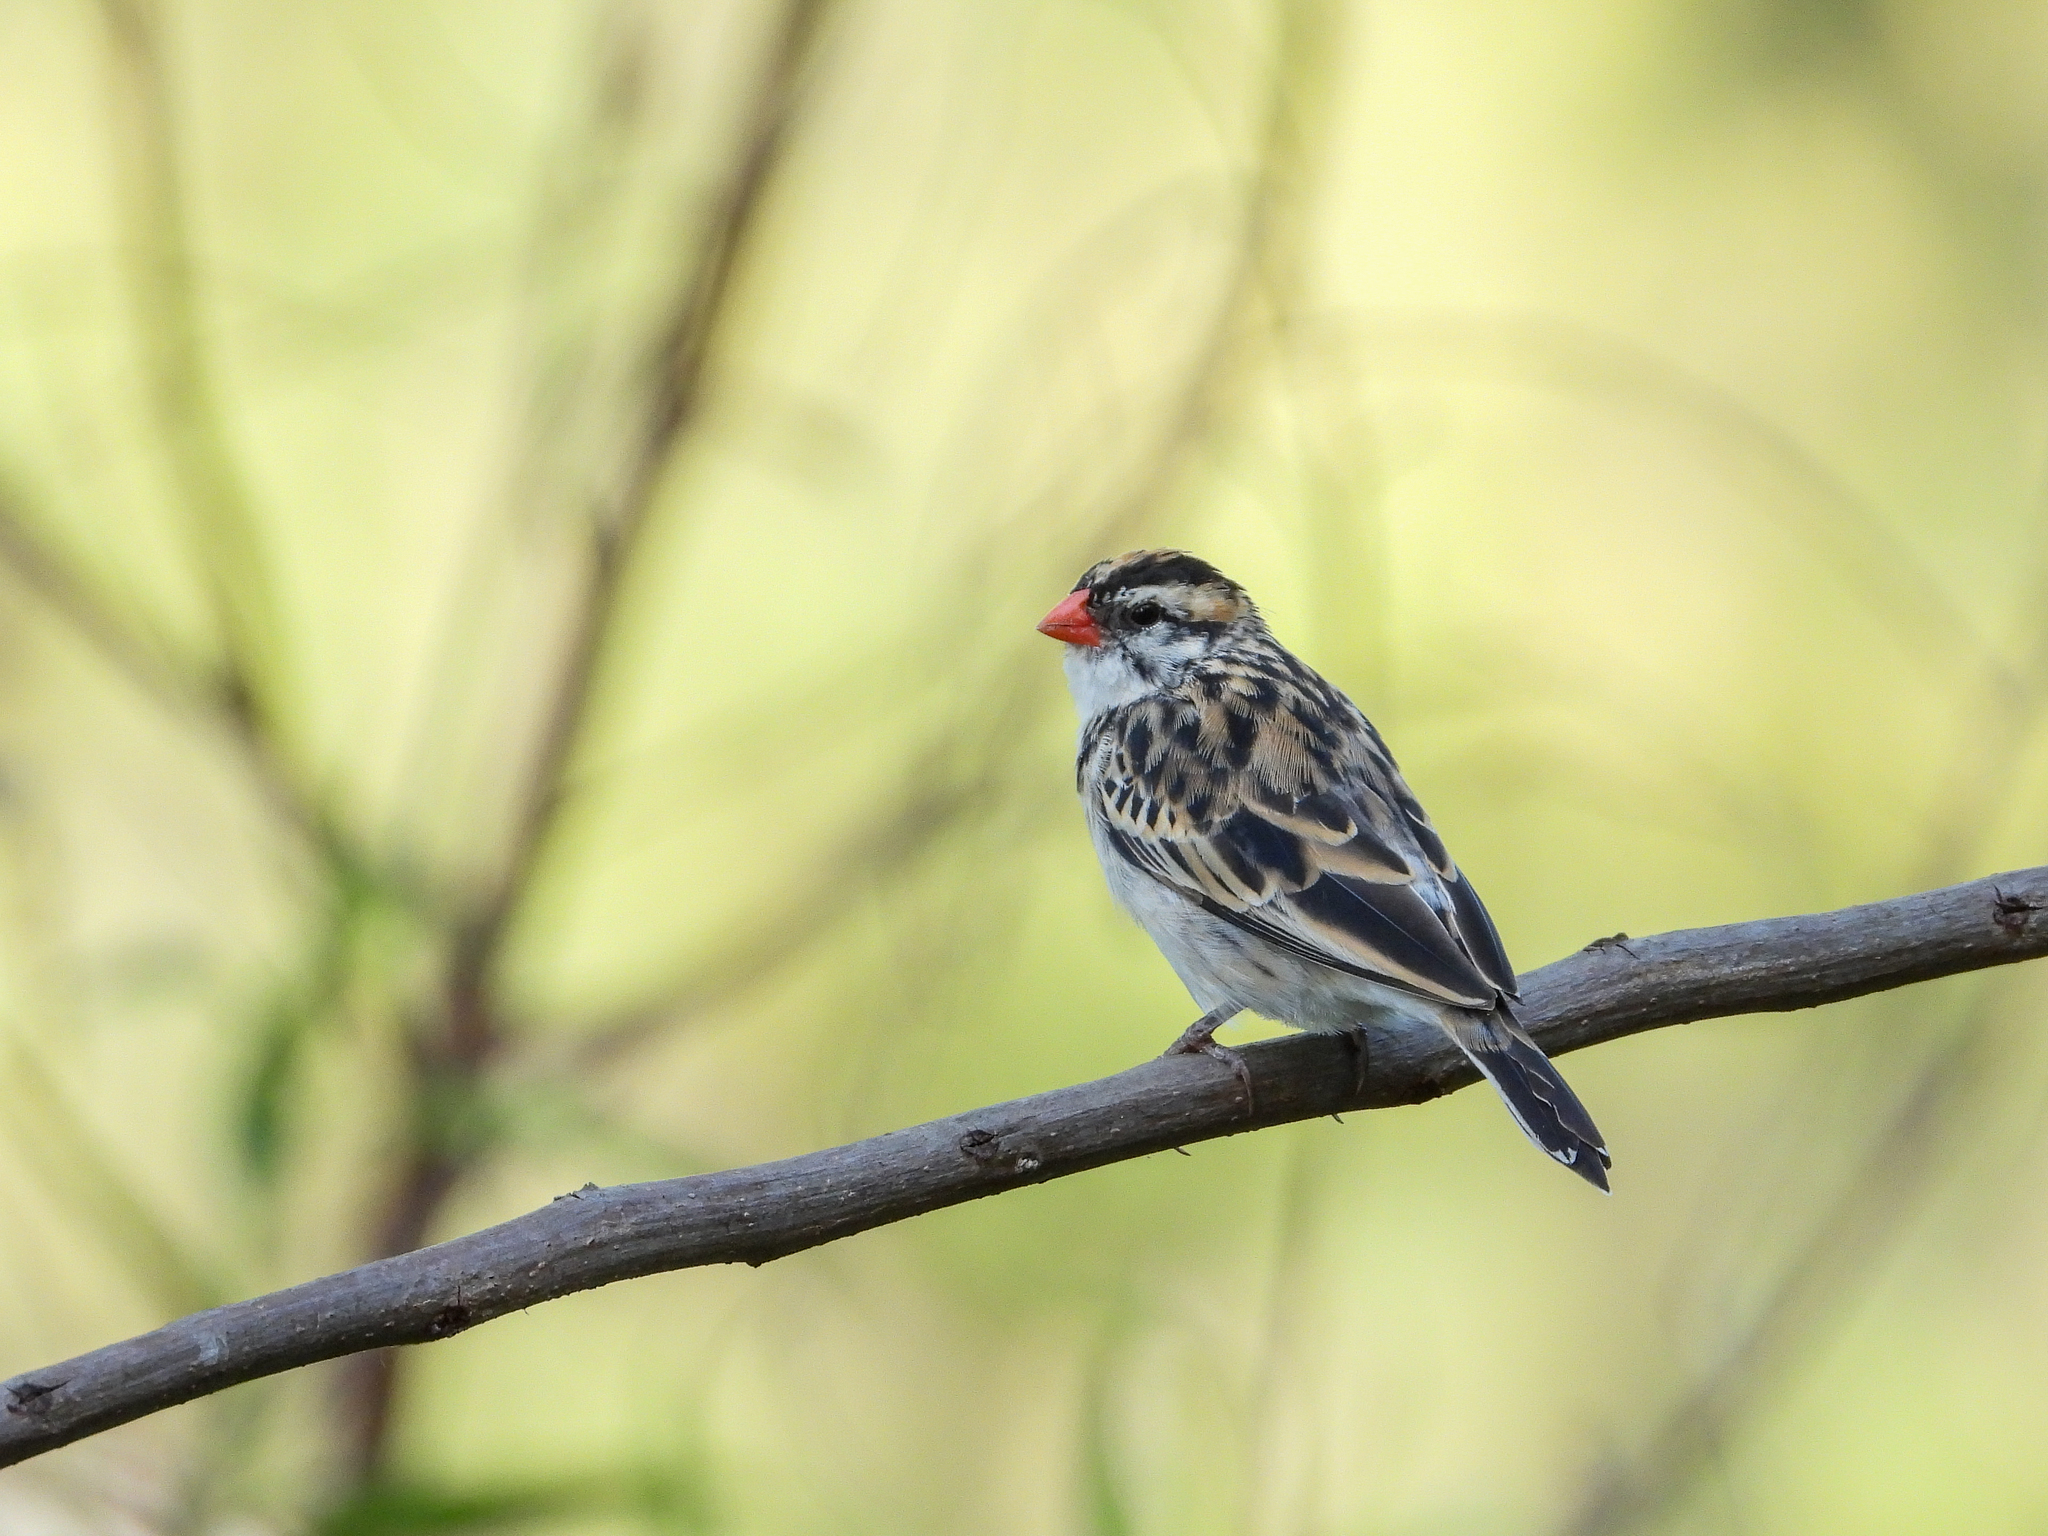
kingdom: Animalia
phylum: Chordata
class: Aves
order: Passeriformes
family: Viduidae
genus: Vidua
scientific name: Vidua macroura
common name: Pin-tailed whydah
